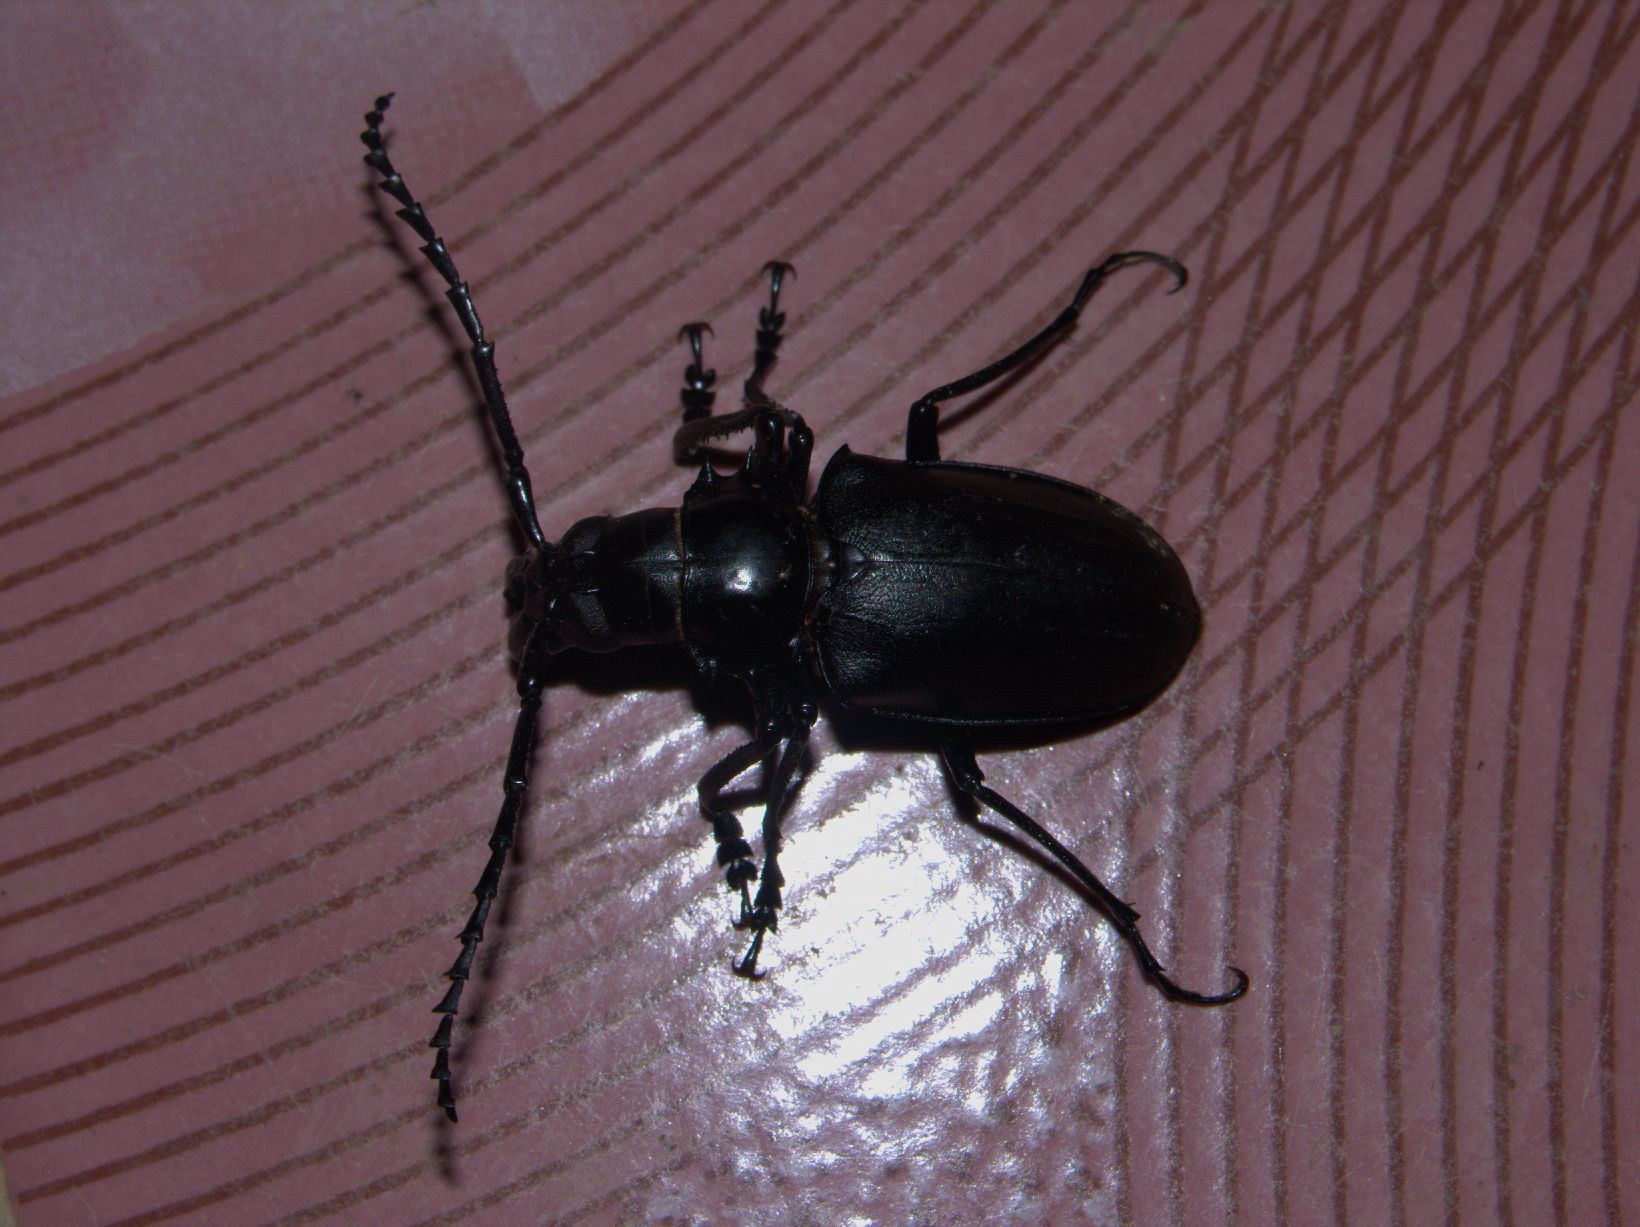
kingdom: Animalia
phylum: Arthropoda
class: Insecta
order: Coleoptera
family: Cerambycidae
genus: Dorysthenes
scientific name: Dorysthenes walkeri
